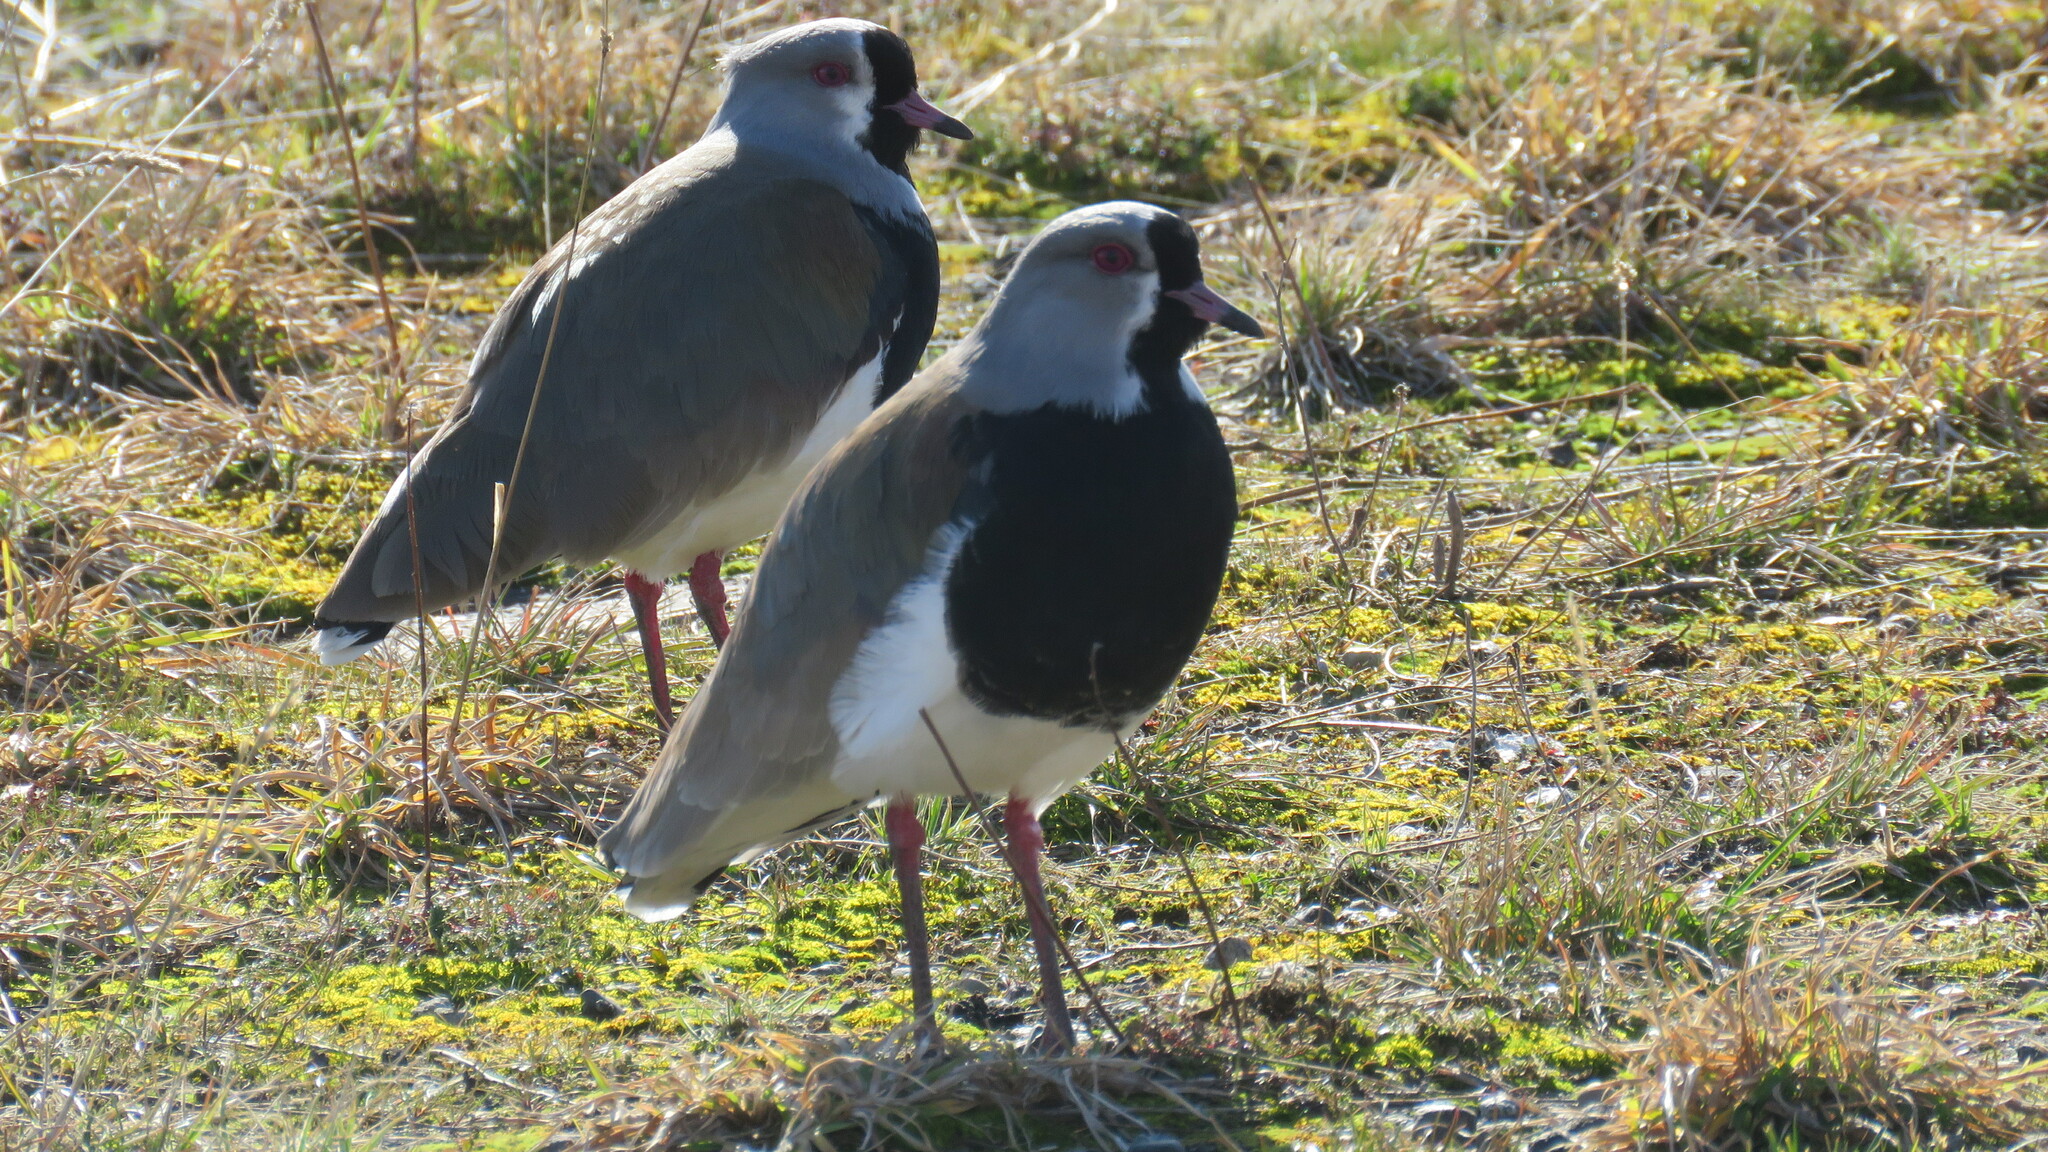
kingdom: Animalia
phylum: Chordata
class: Aves
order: Charadriiformes
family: Charadriidae
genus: Vanellus
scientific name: Vanellus chilensis
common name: Southern lapwing
